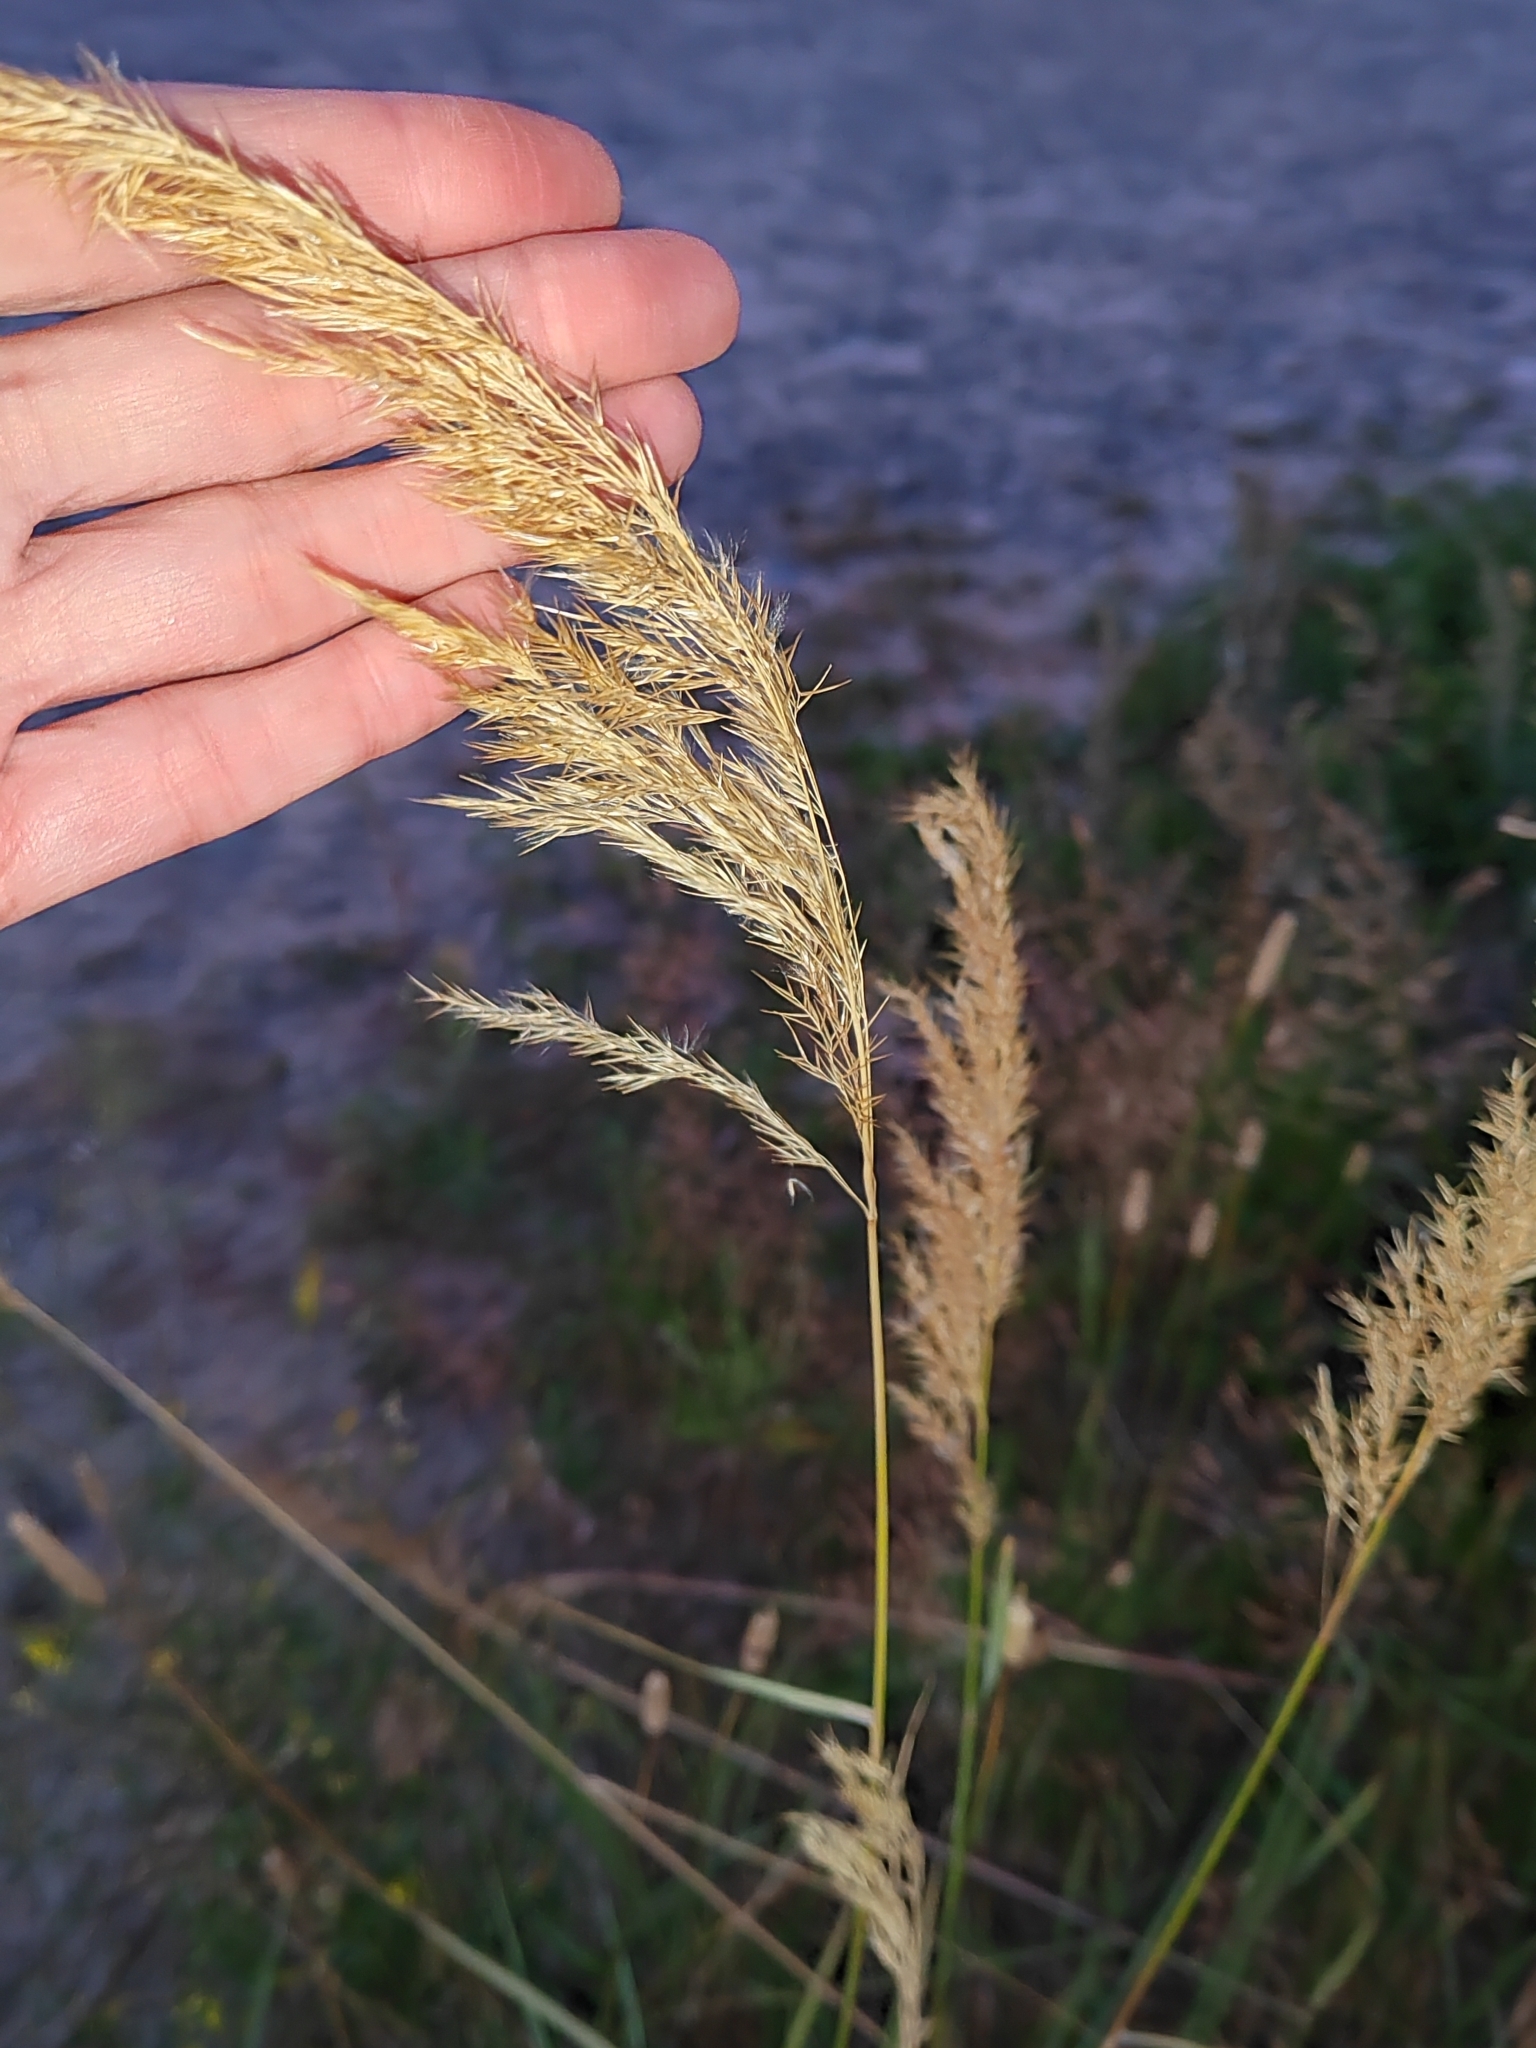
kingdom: Plantae
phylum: Tracheophyta
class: Liliopsida
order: Poales
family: Poaceae
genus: Calamagrostis
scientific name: Calamagrostis epigejos
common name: Wood small-reed
